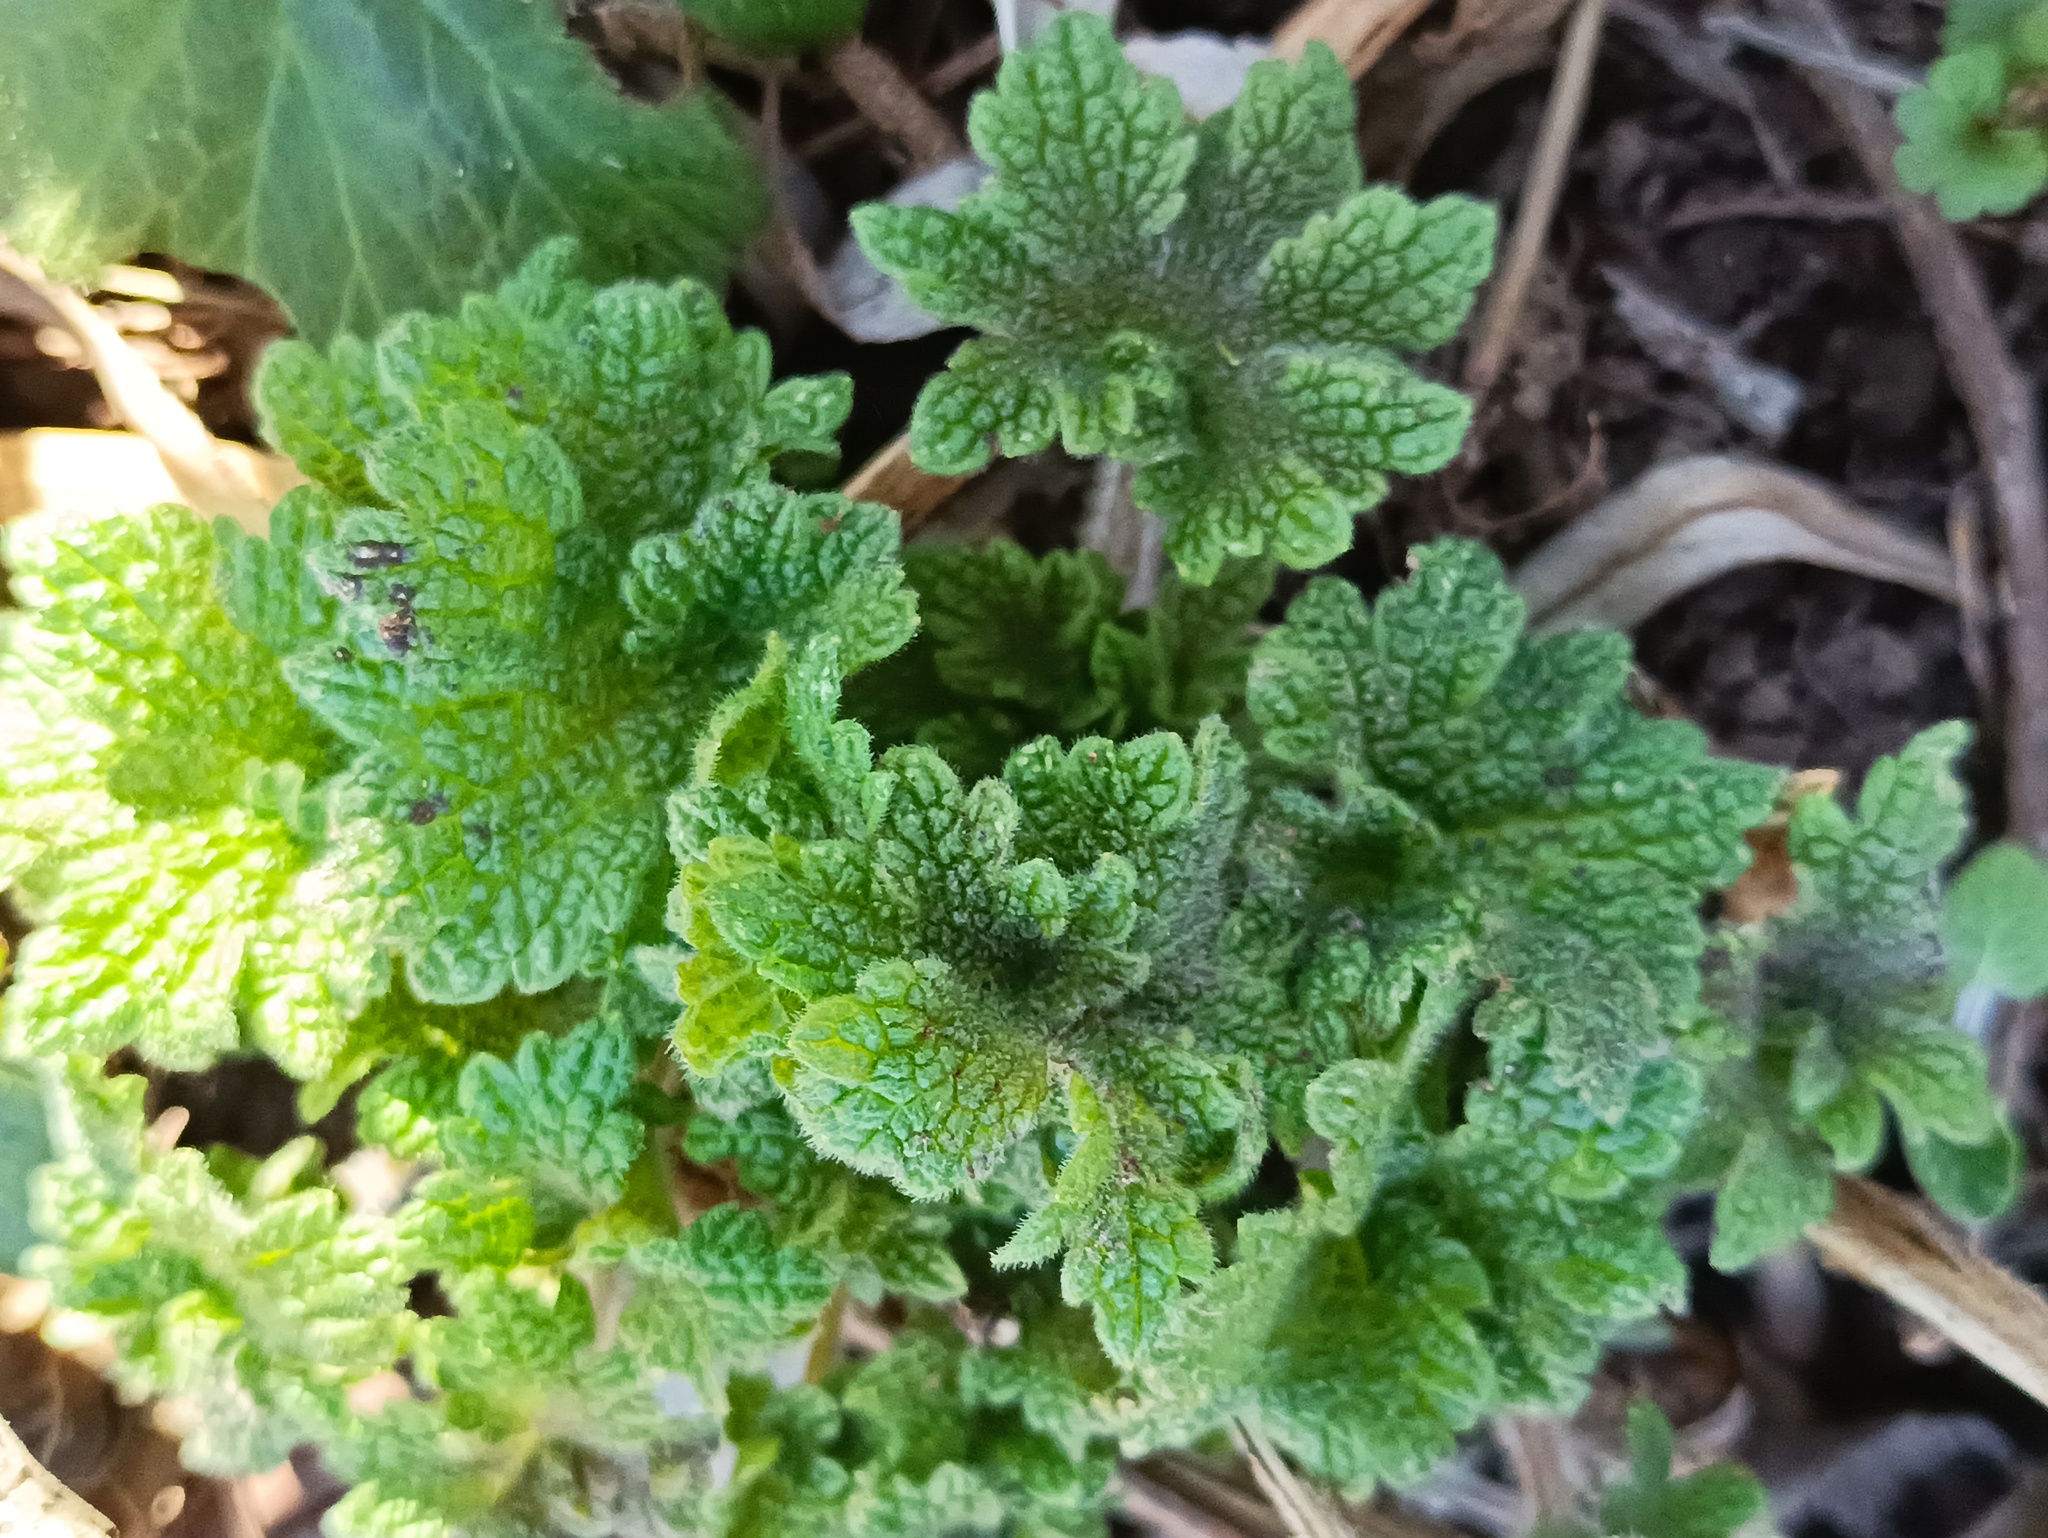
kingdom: Plantae
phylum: Tracheophyta
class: Magnoliopsida
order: Lamiales
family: Lamiaceae
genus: Leonurus
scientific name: Leonurus quinquelobatus
